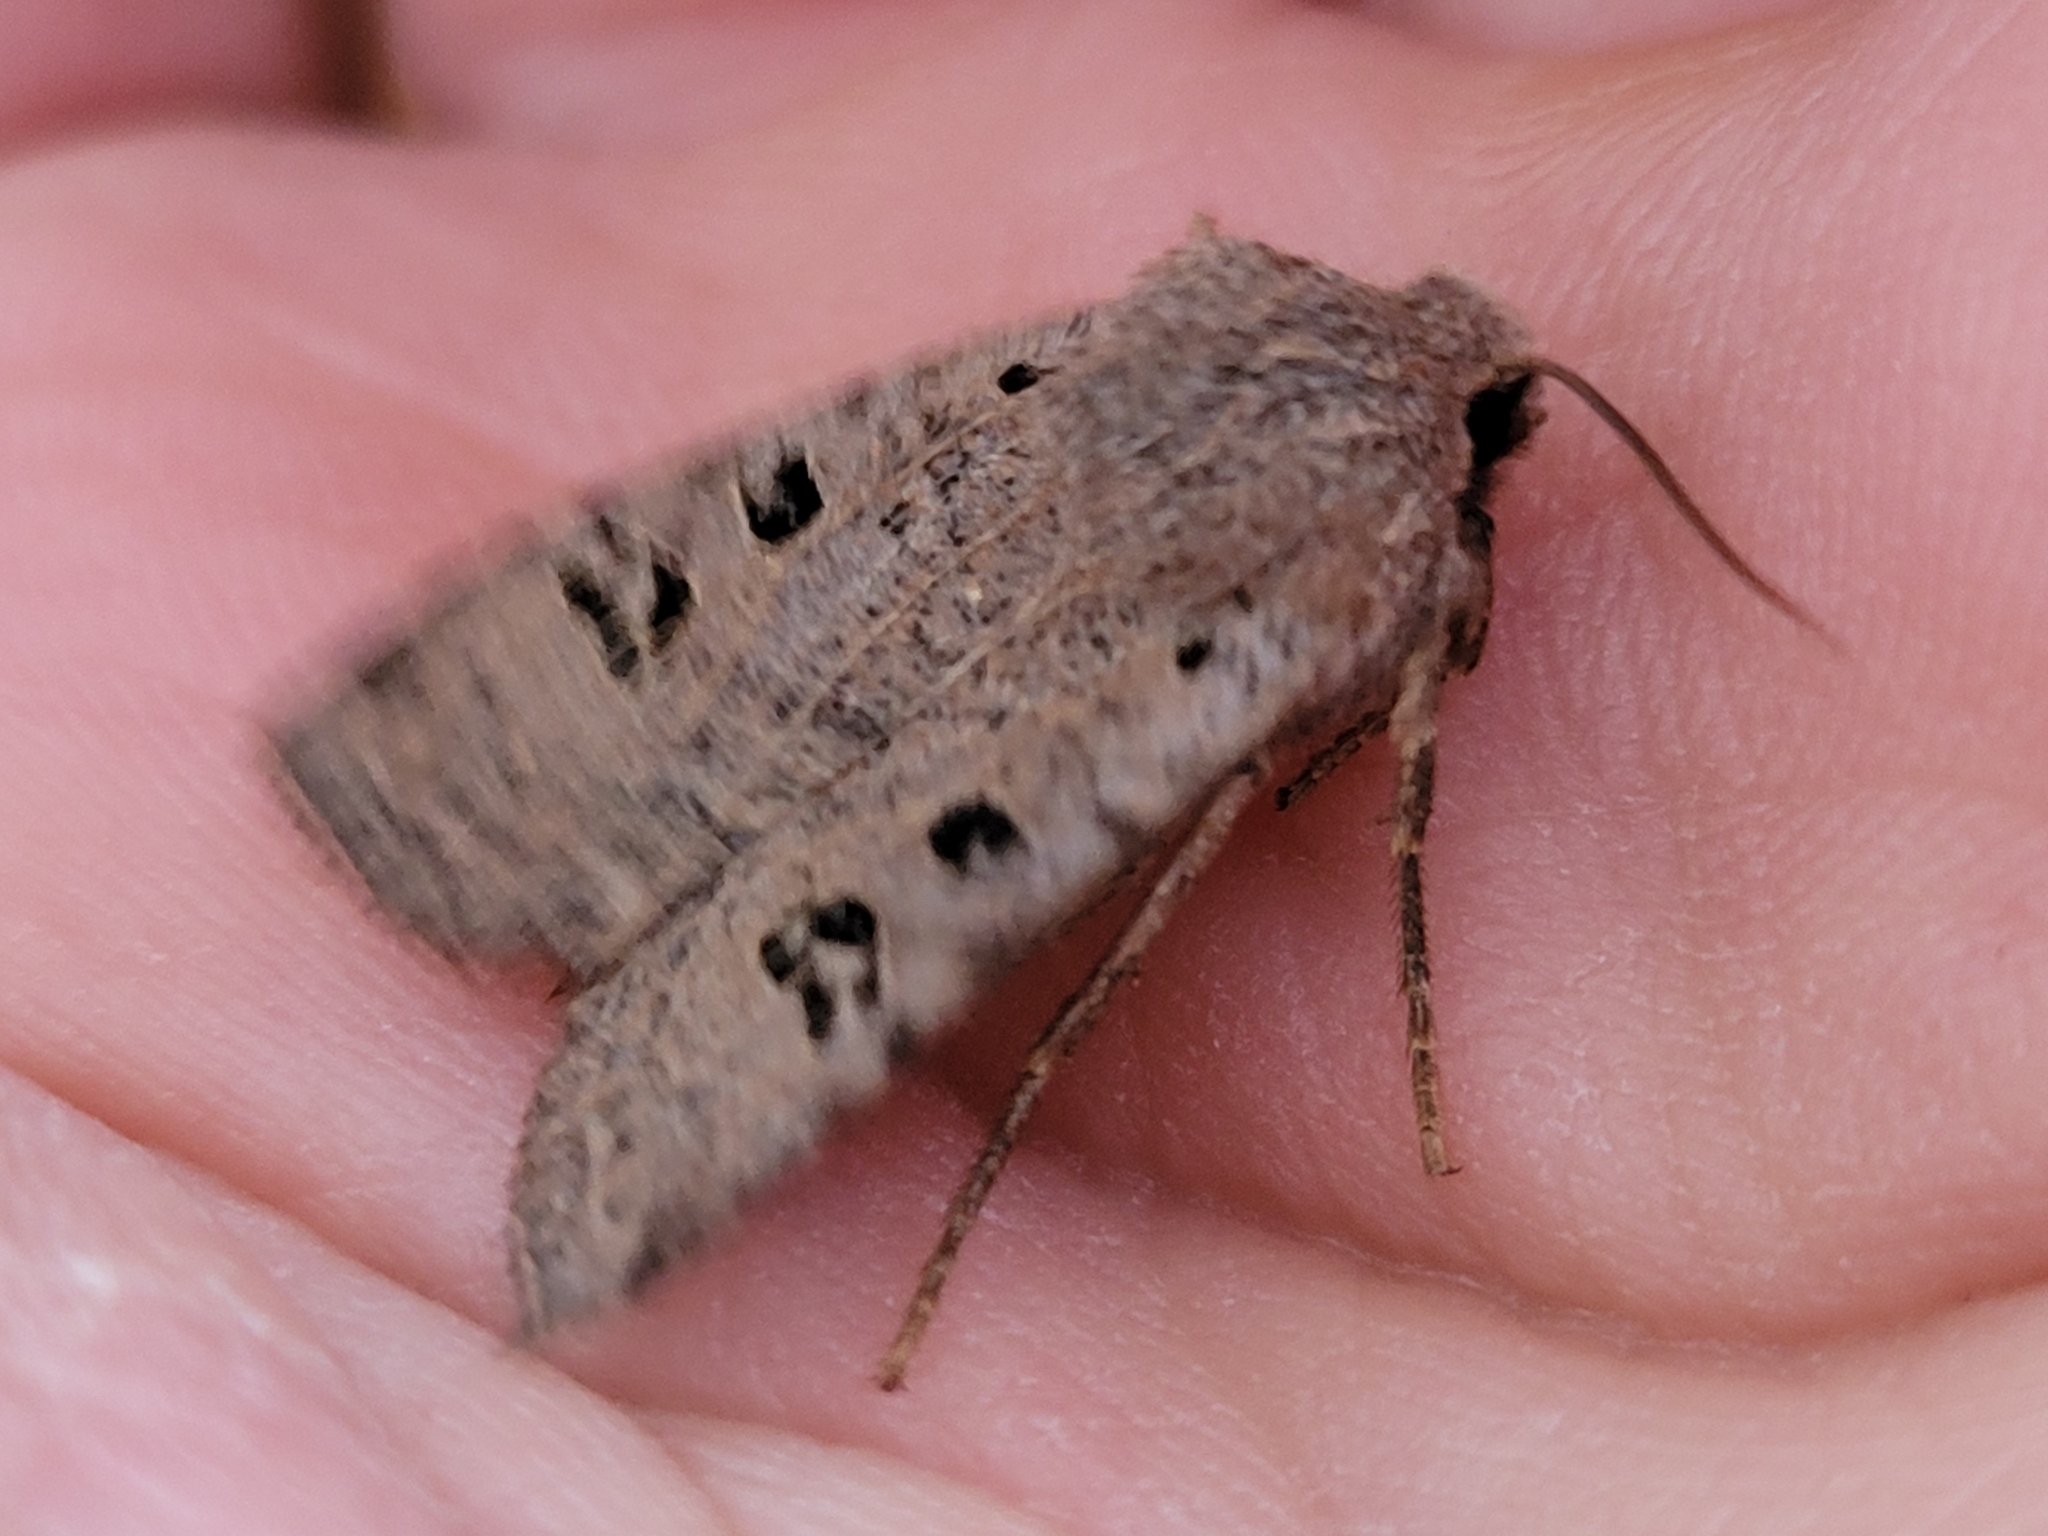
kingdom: Animalia
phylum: Arthropoda
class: Insecta
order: Lepidoptera
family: Noctuidae
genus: Conistra
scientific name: Conistra rubiginosa
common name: Black-spotted chestnut
